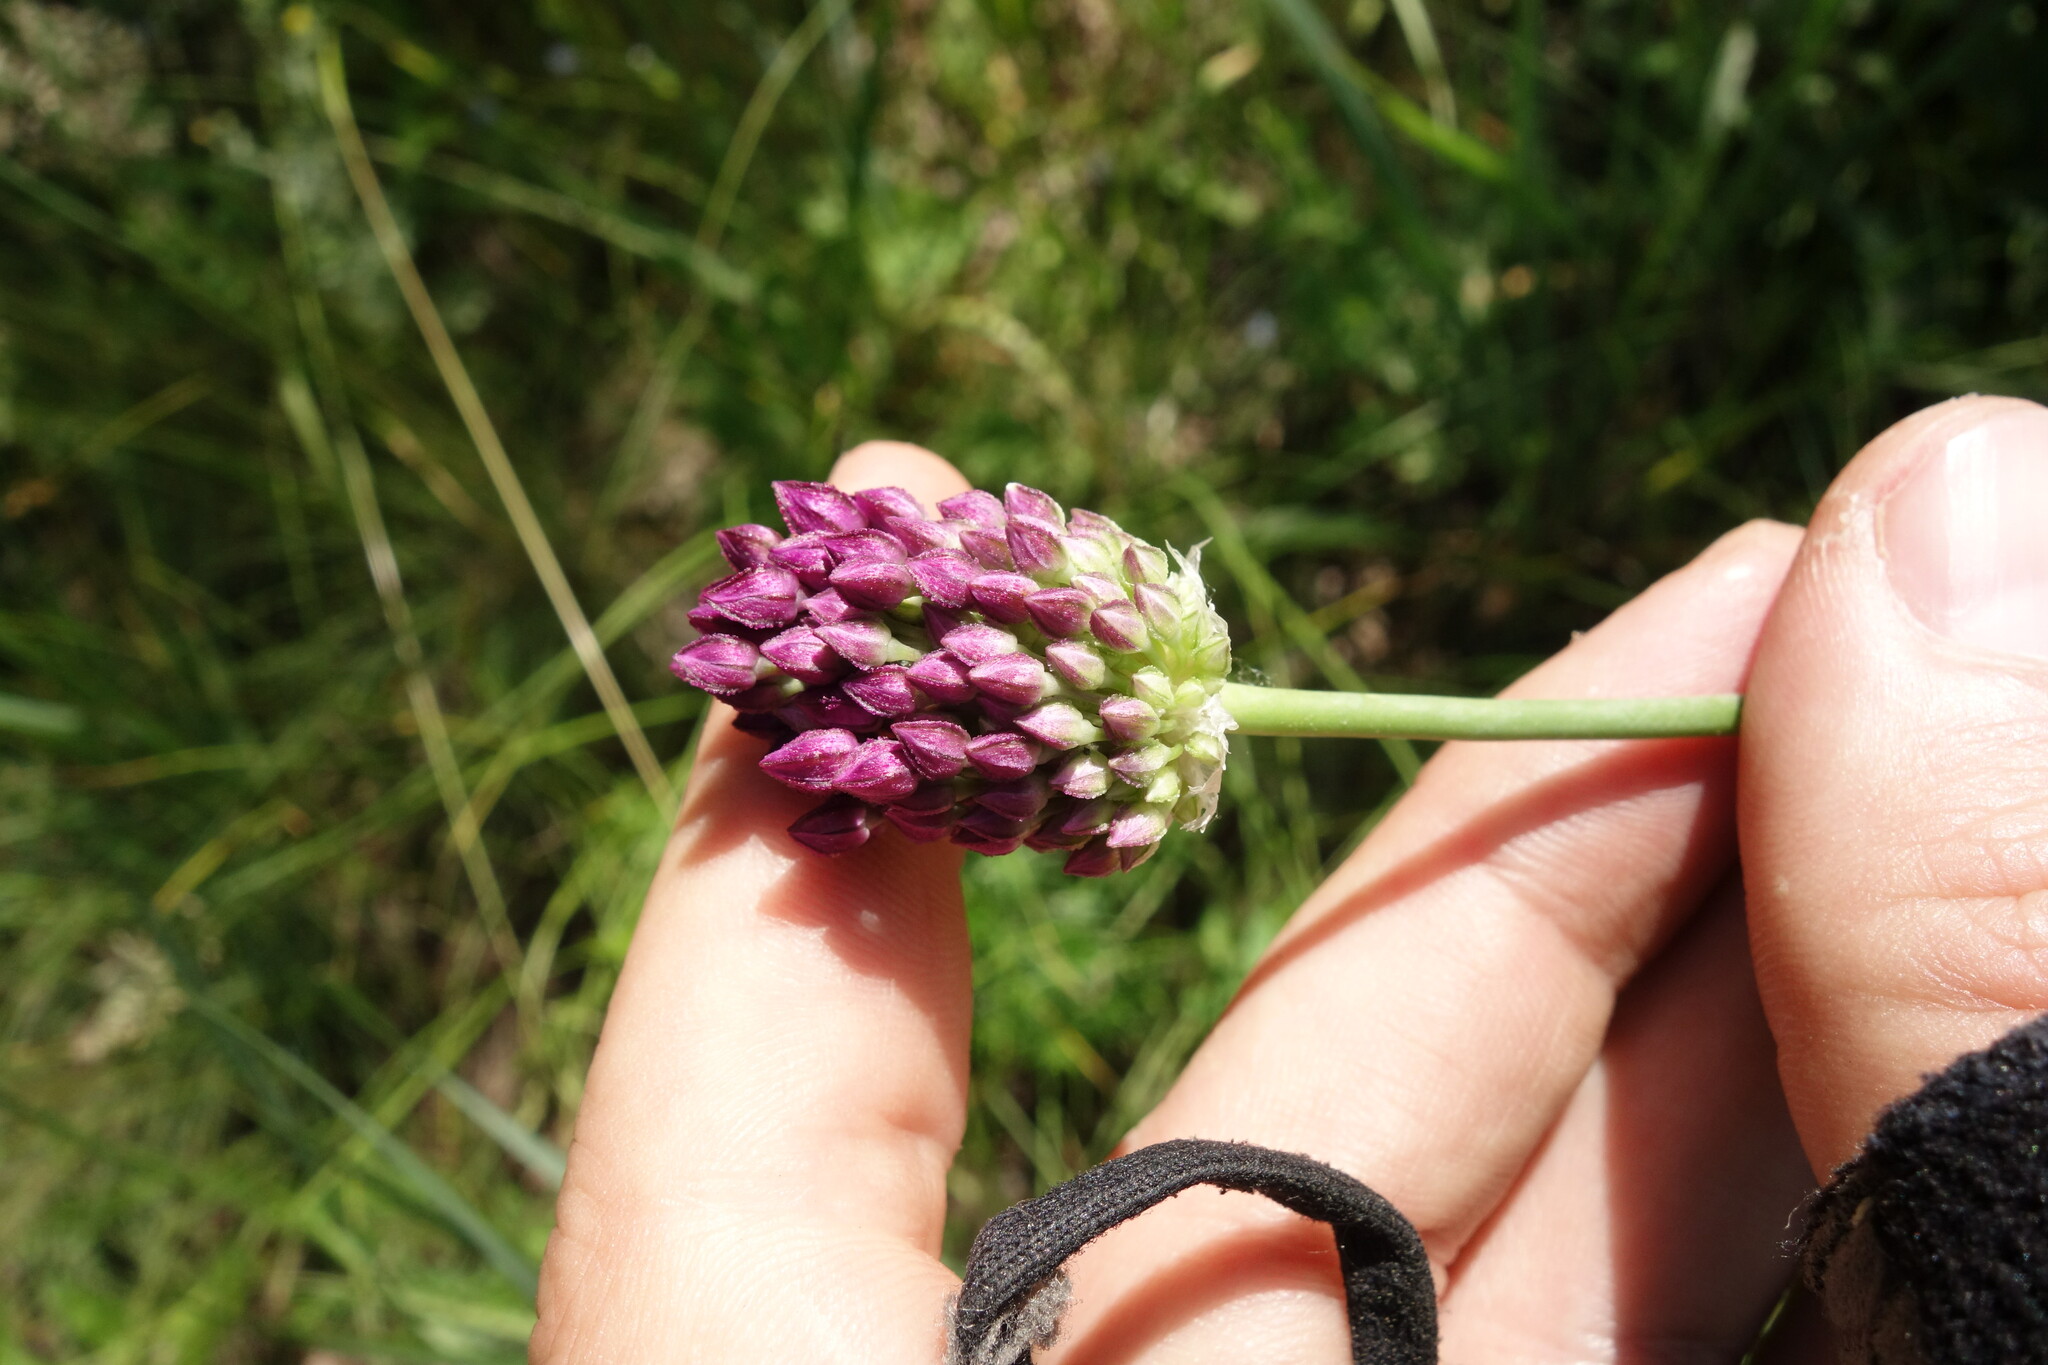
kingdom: Plantae
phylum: Tracheophyta
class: Liliopsida
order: Asparagales
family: Amaryllidaceae
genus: Allium
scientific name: Allium rotundum
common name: Sand leek
